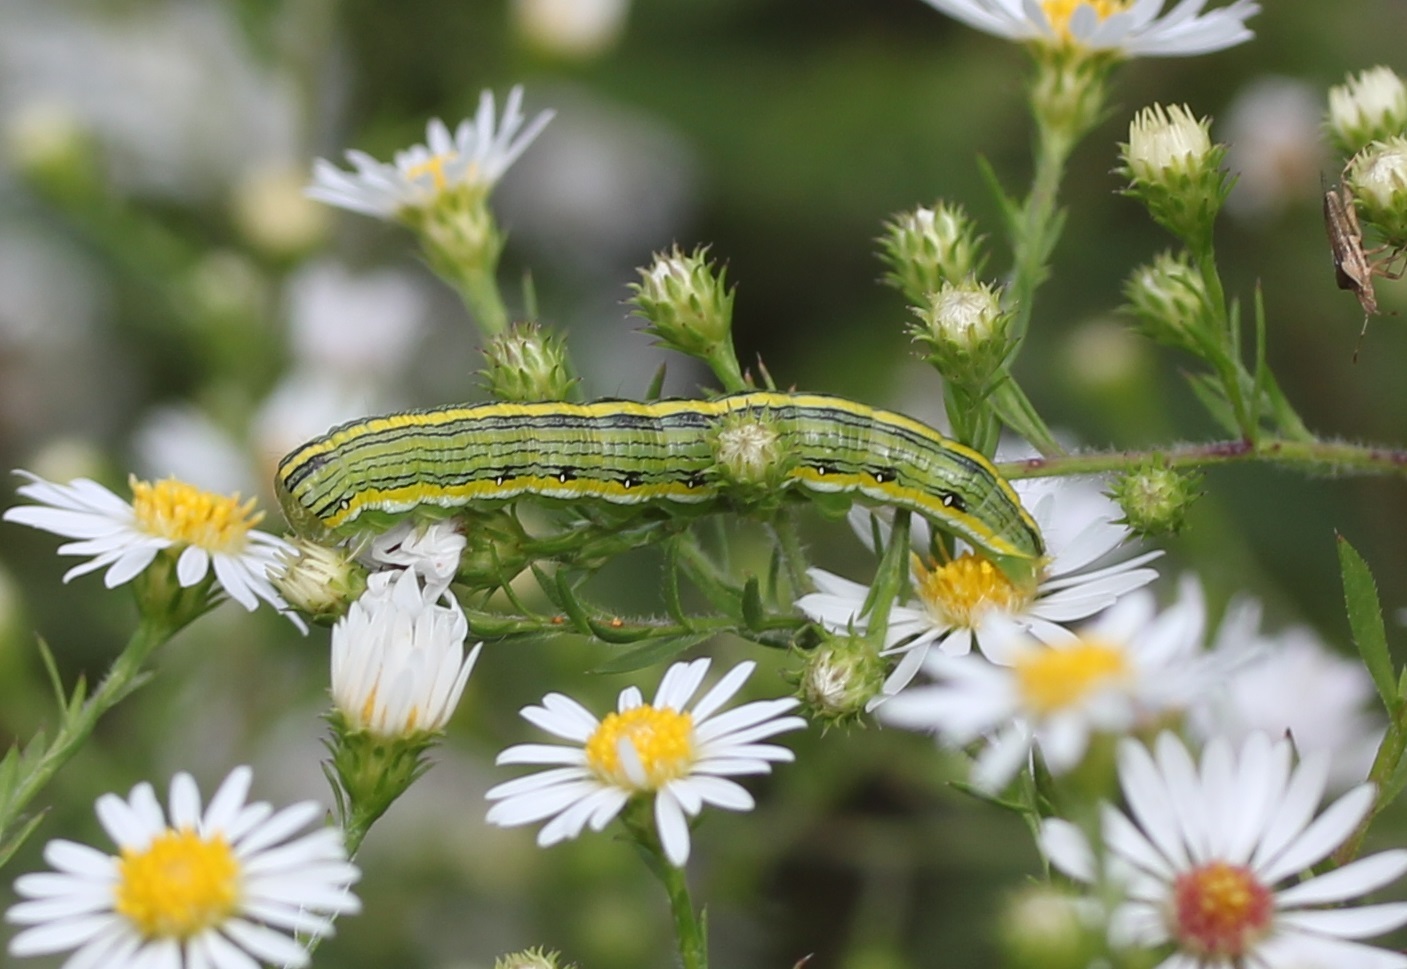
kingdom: Animalia
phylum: Arthropoda
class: Insecta
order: Lepidoptera
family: Noctuidae
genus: Cucullia
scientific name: Cucullia asteroides
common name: Asteroid moth
